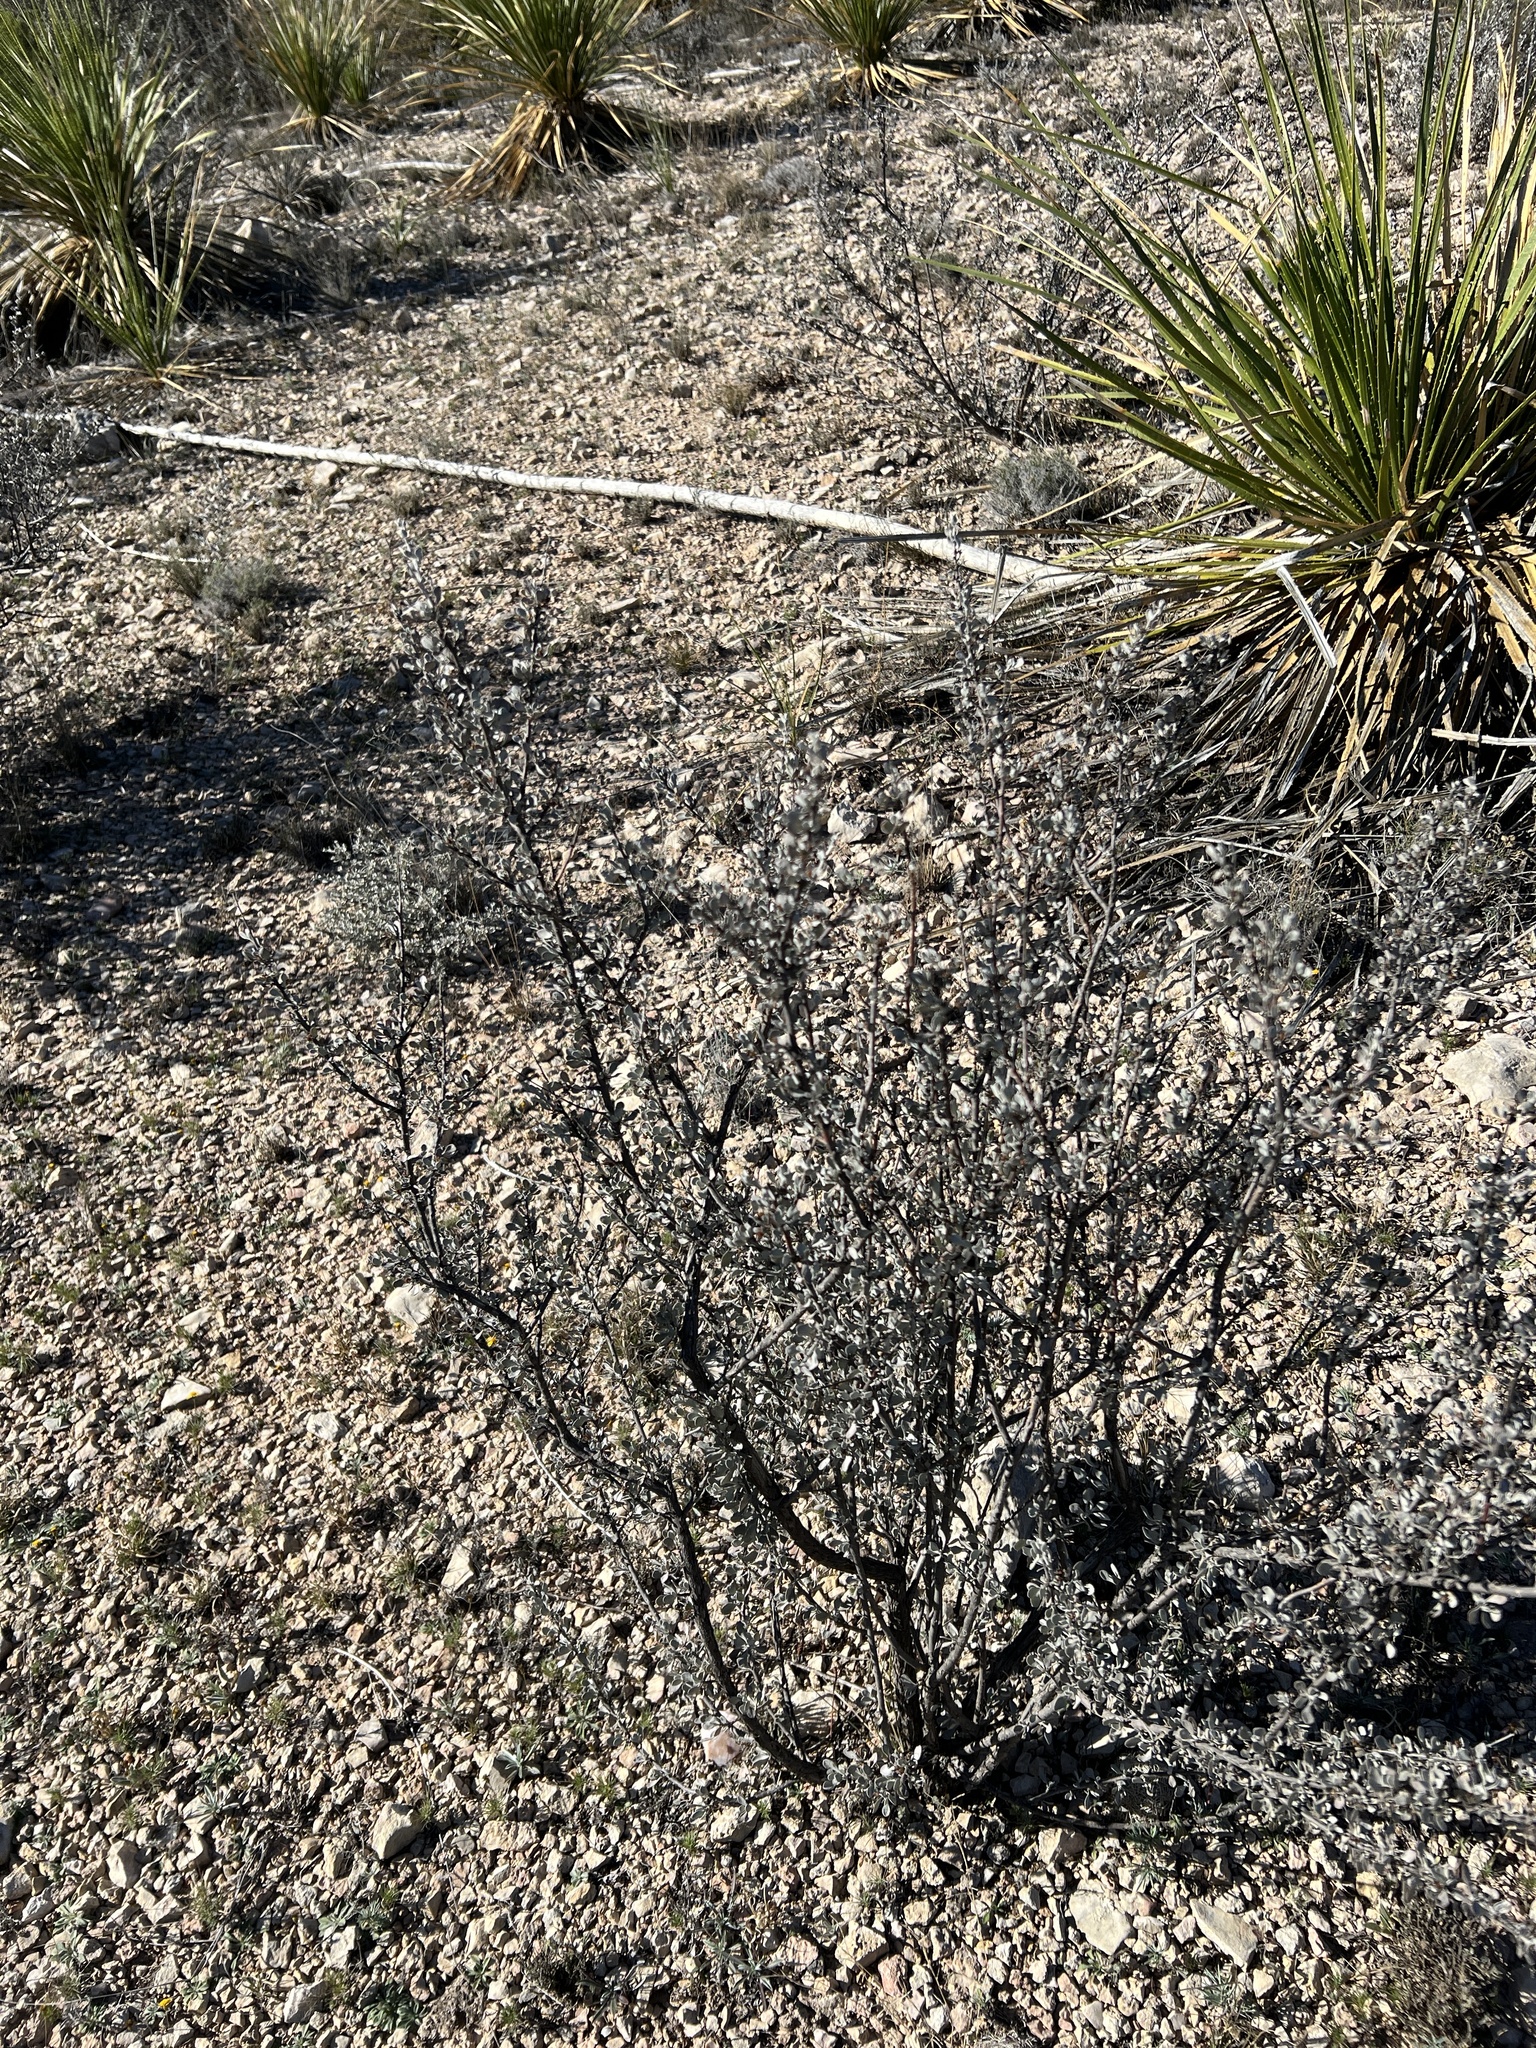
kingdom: Plantae
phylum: Tracheophyta
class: Magnoliopsida
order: Lamiales
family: Scrophulariaceae
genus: Leucophyllum
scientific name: Leucophyllum minus
